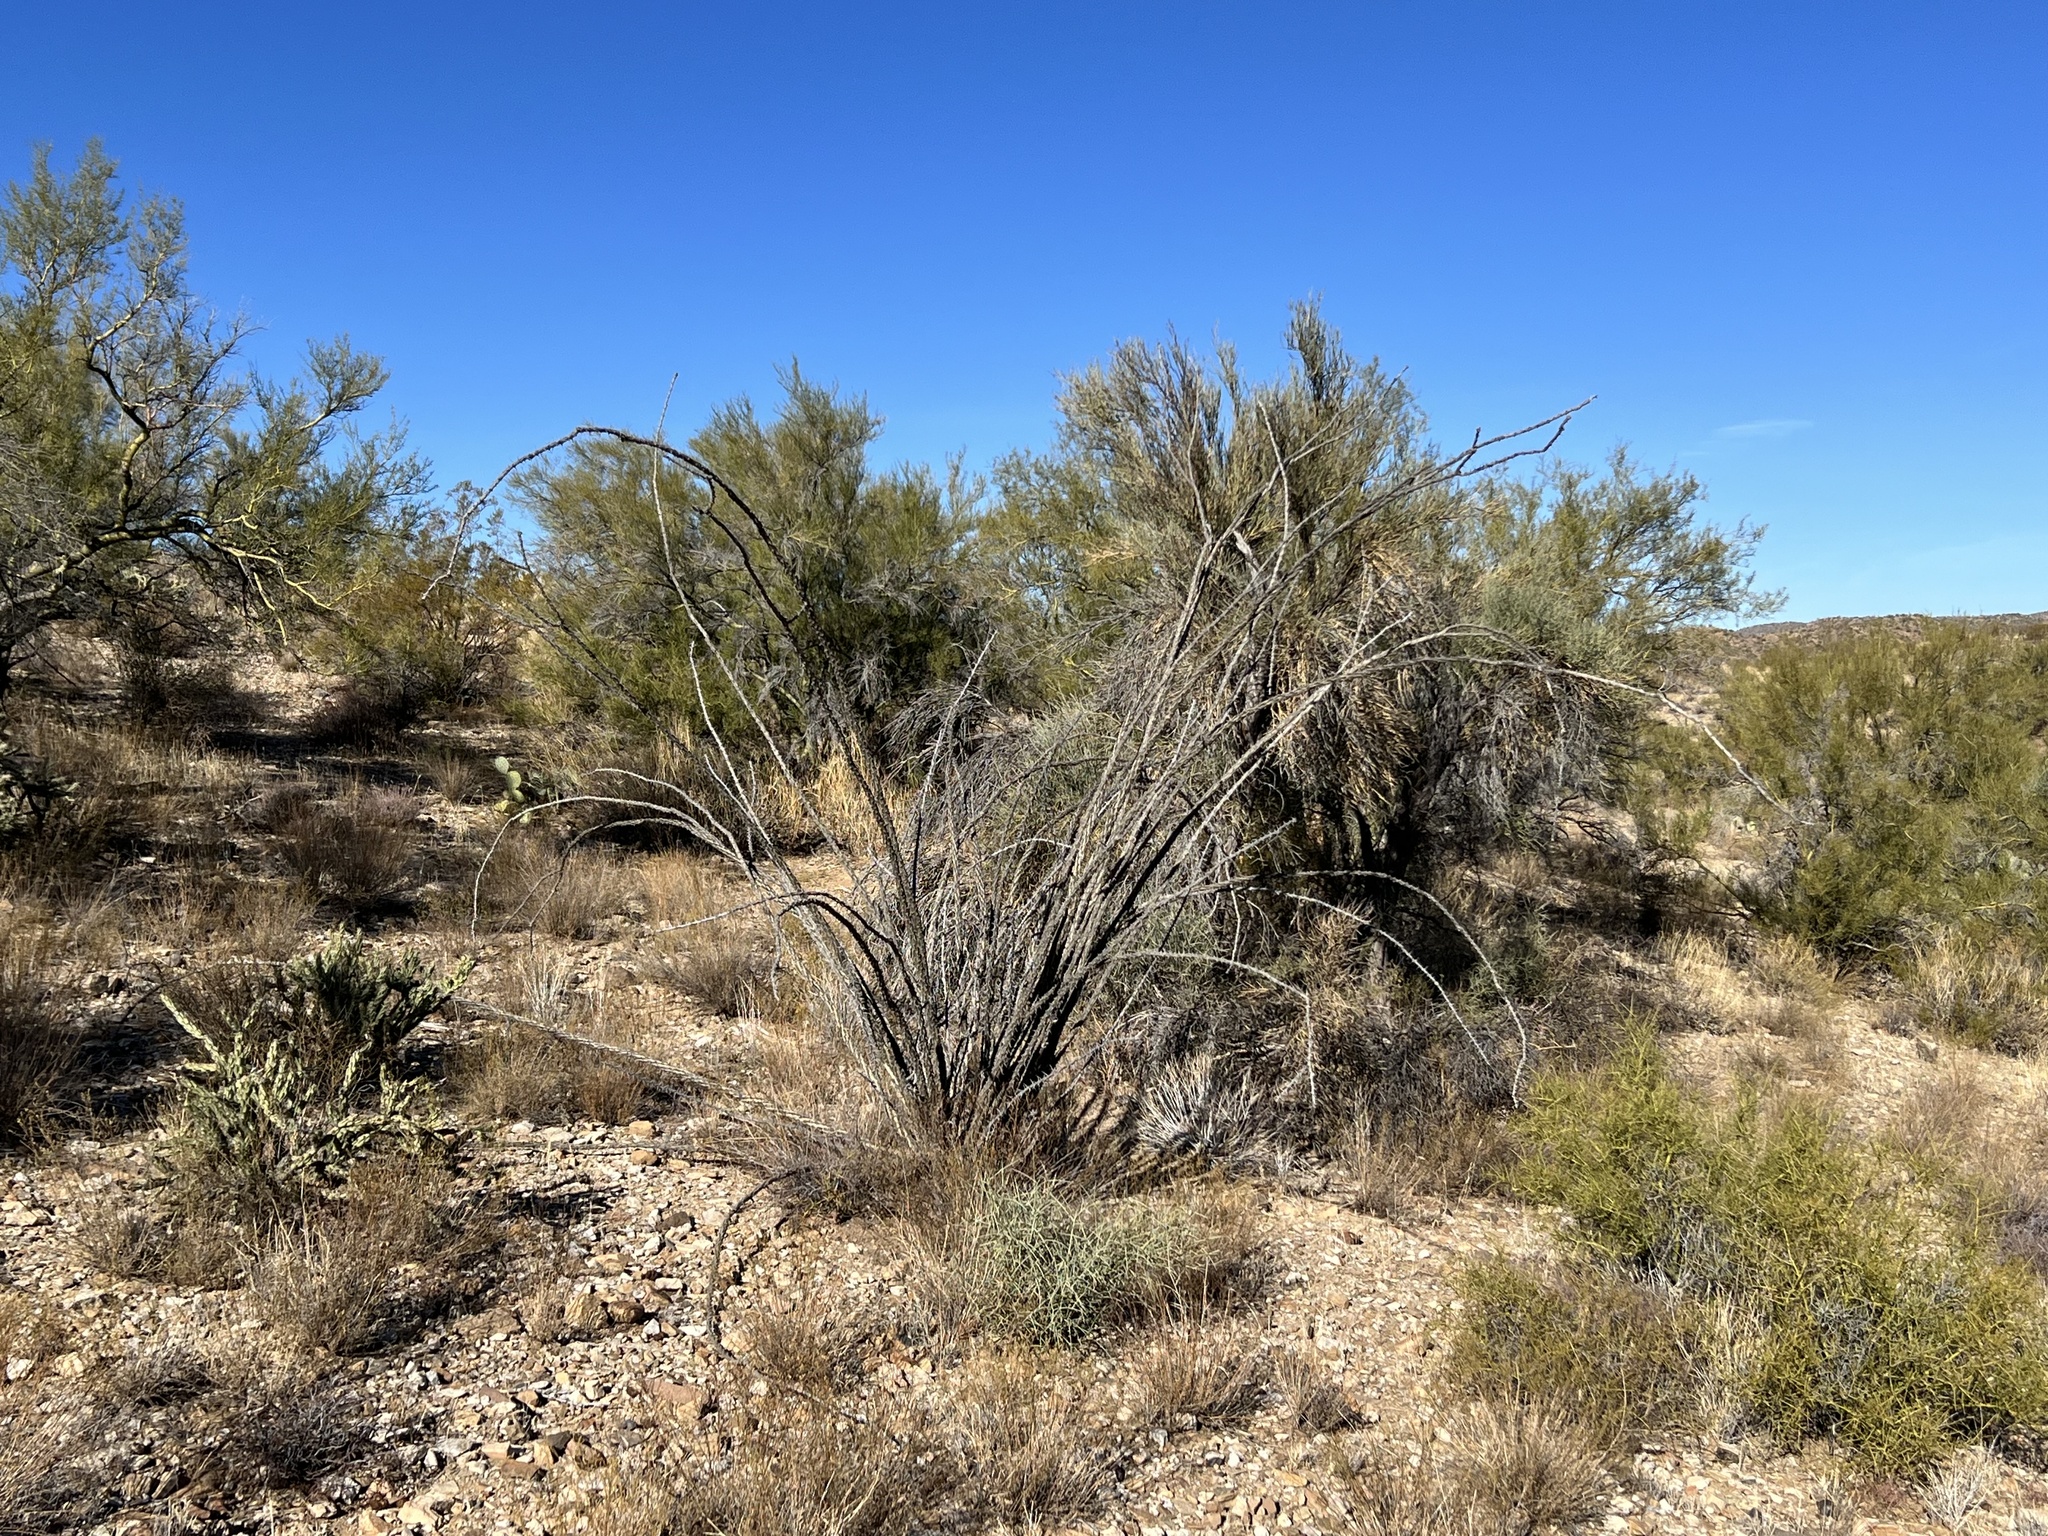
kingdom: Plantae
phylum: Tracheophyta
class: Magnoliopsida
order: Ericales
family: Fouquieriaceae
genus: Fouquieria
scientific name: Fouquieria splendens
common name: Vine-cactus
